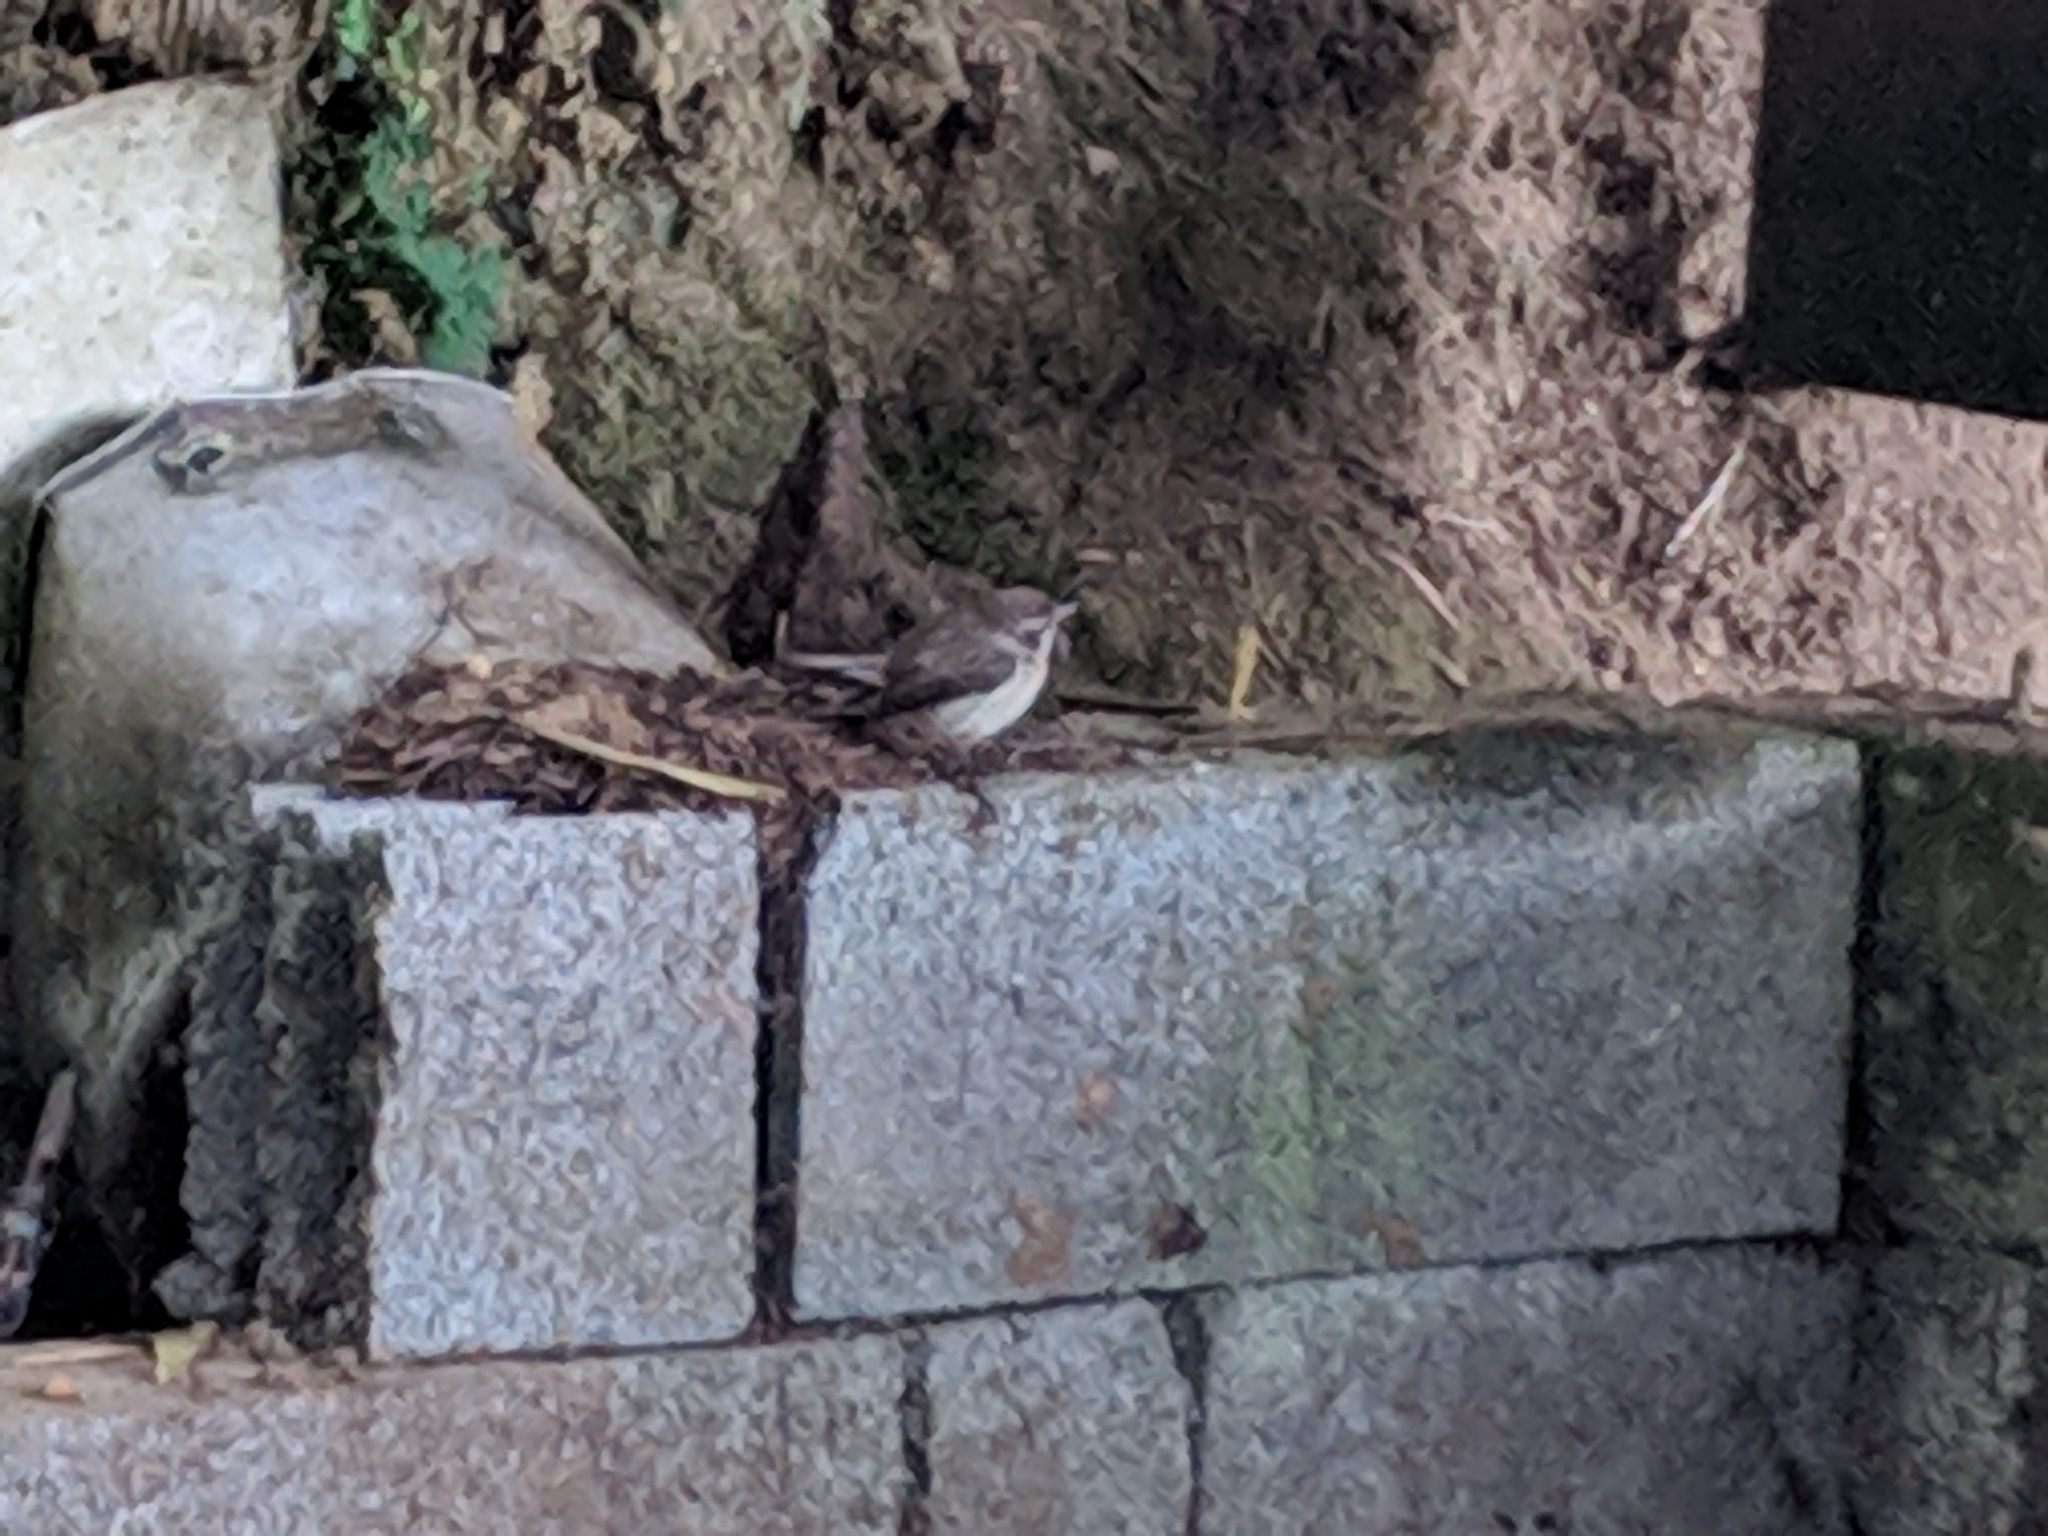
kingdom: Animalia
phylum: Chordata
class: Aves
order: Passeriformes
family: Muscicapidae
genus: Saxicola
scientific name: Saxicola tectes
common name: Reunion stonechat
